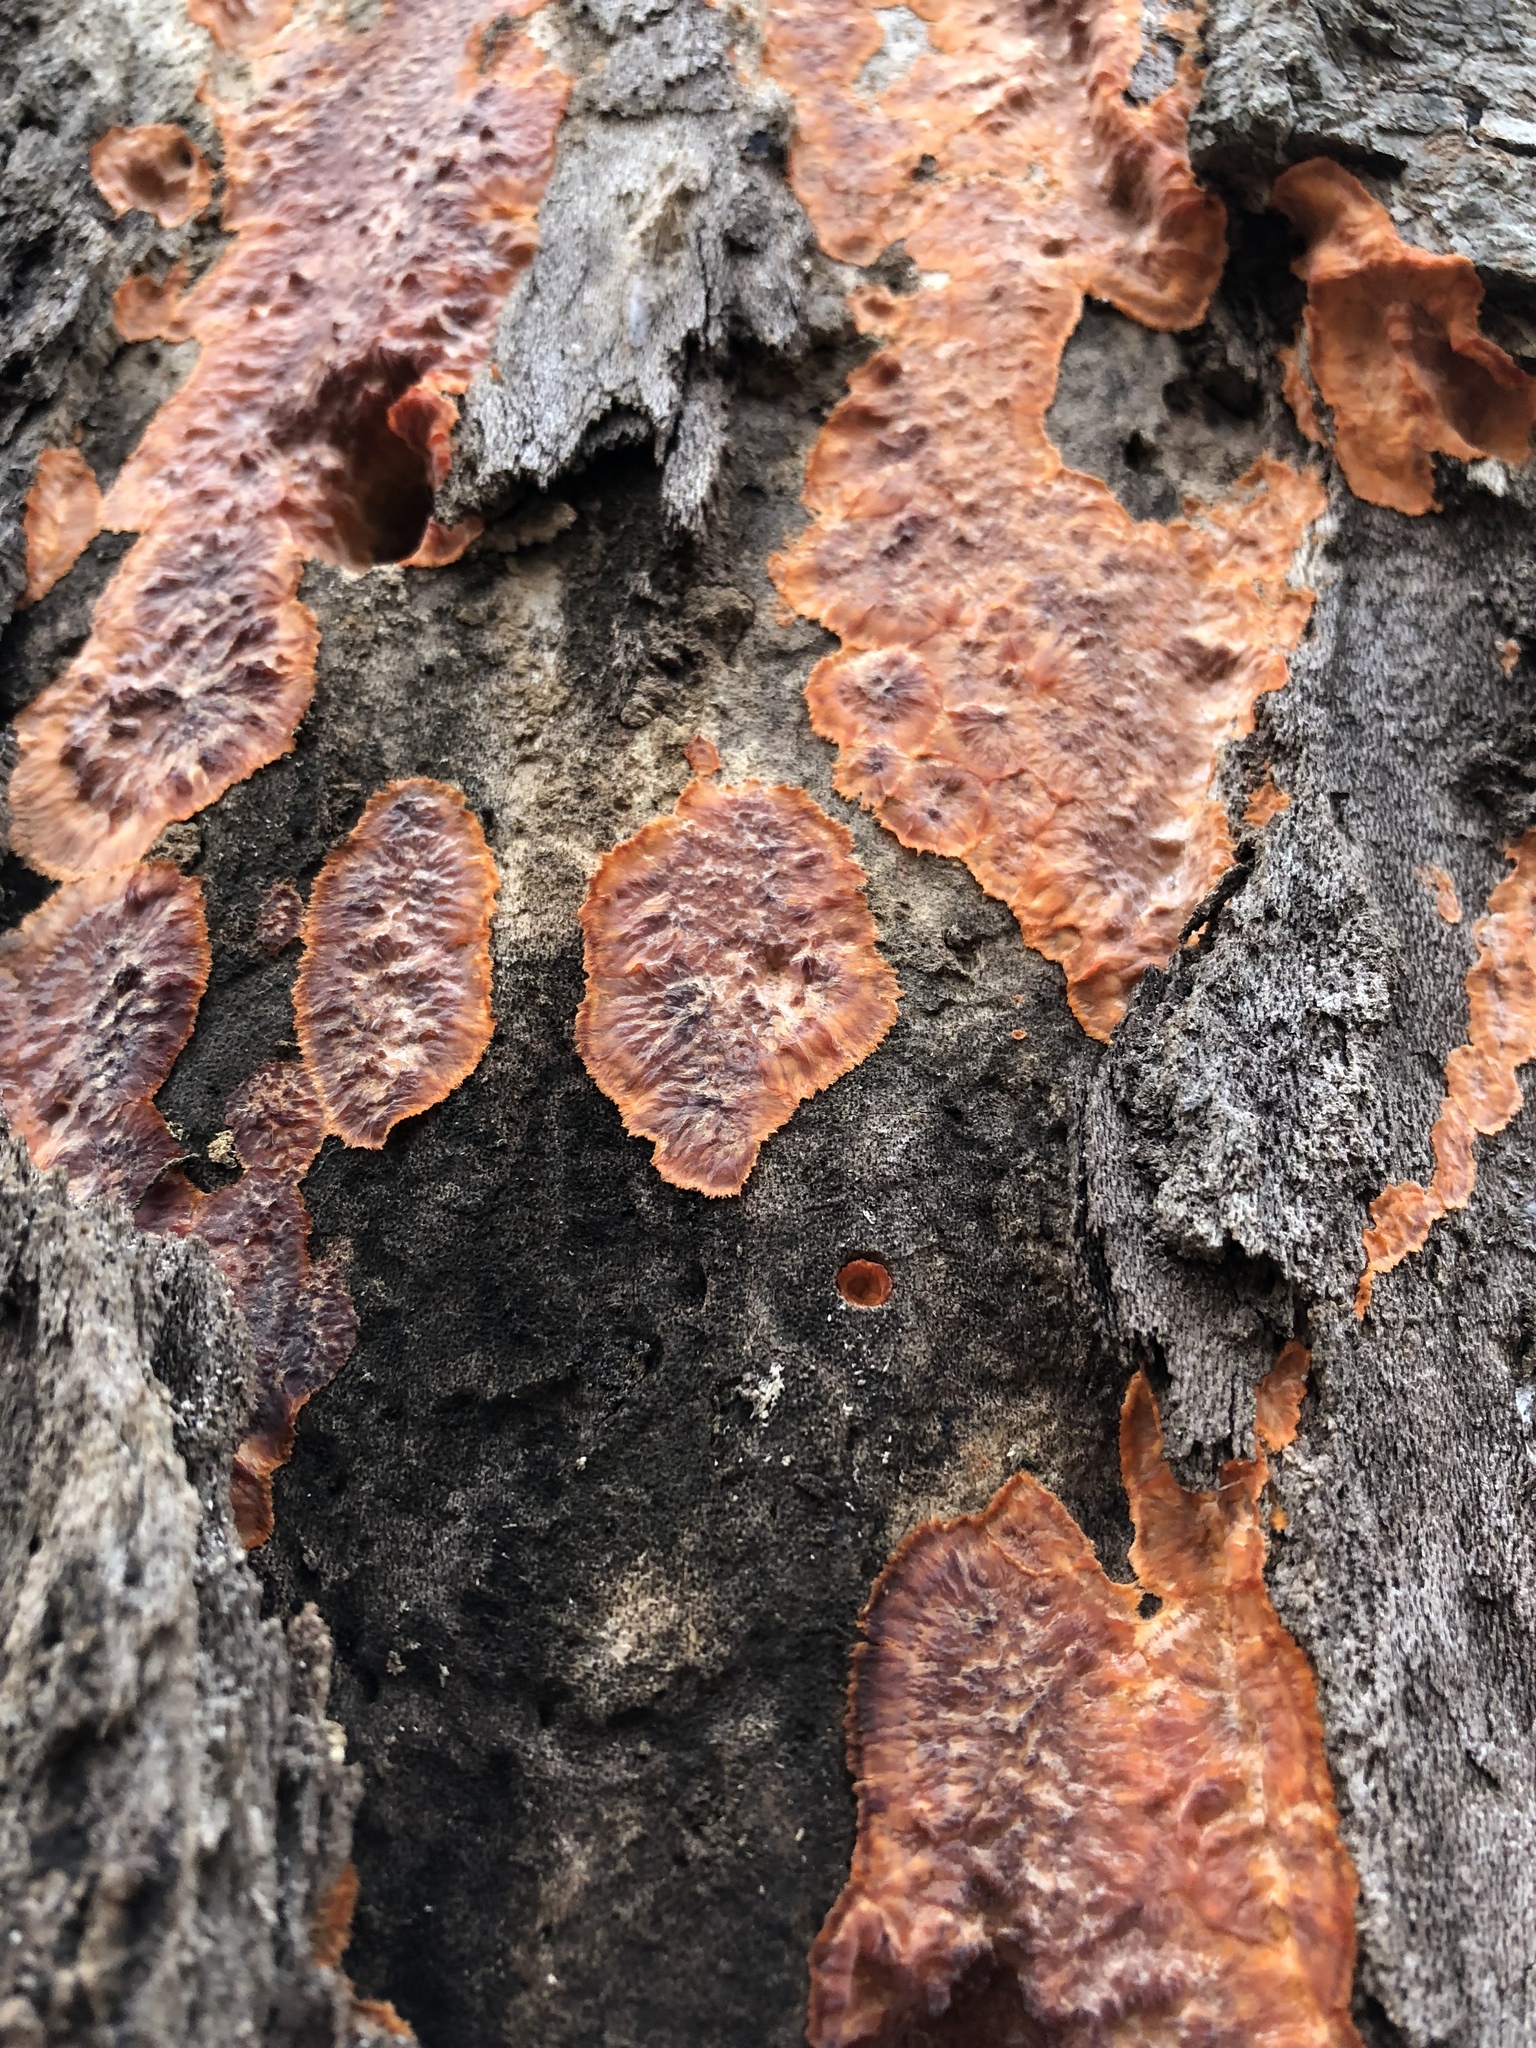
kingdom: Fungi
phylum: Basidiomycota
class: Agaricomycetes
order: Polyporales
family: Meruliaceae
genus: Phlebia
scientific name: Phlebia radiata
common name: Wrinkled crust
